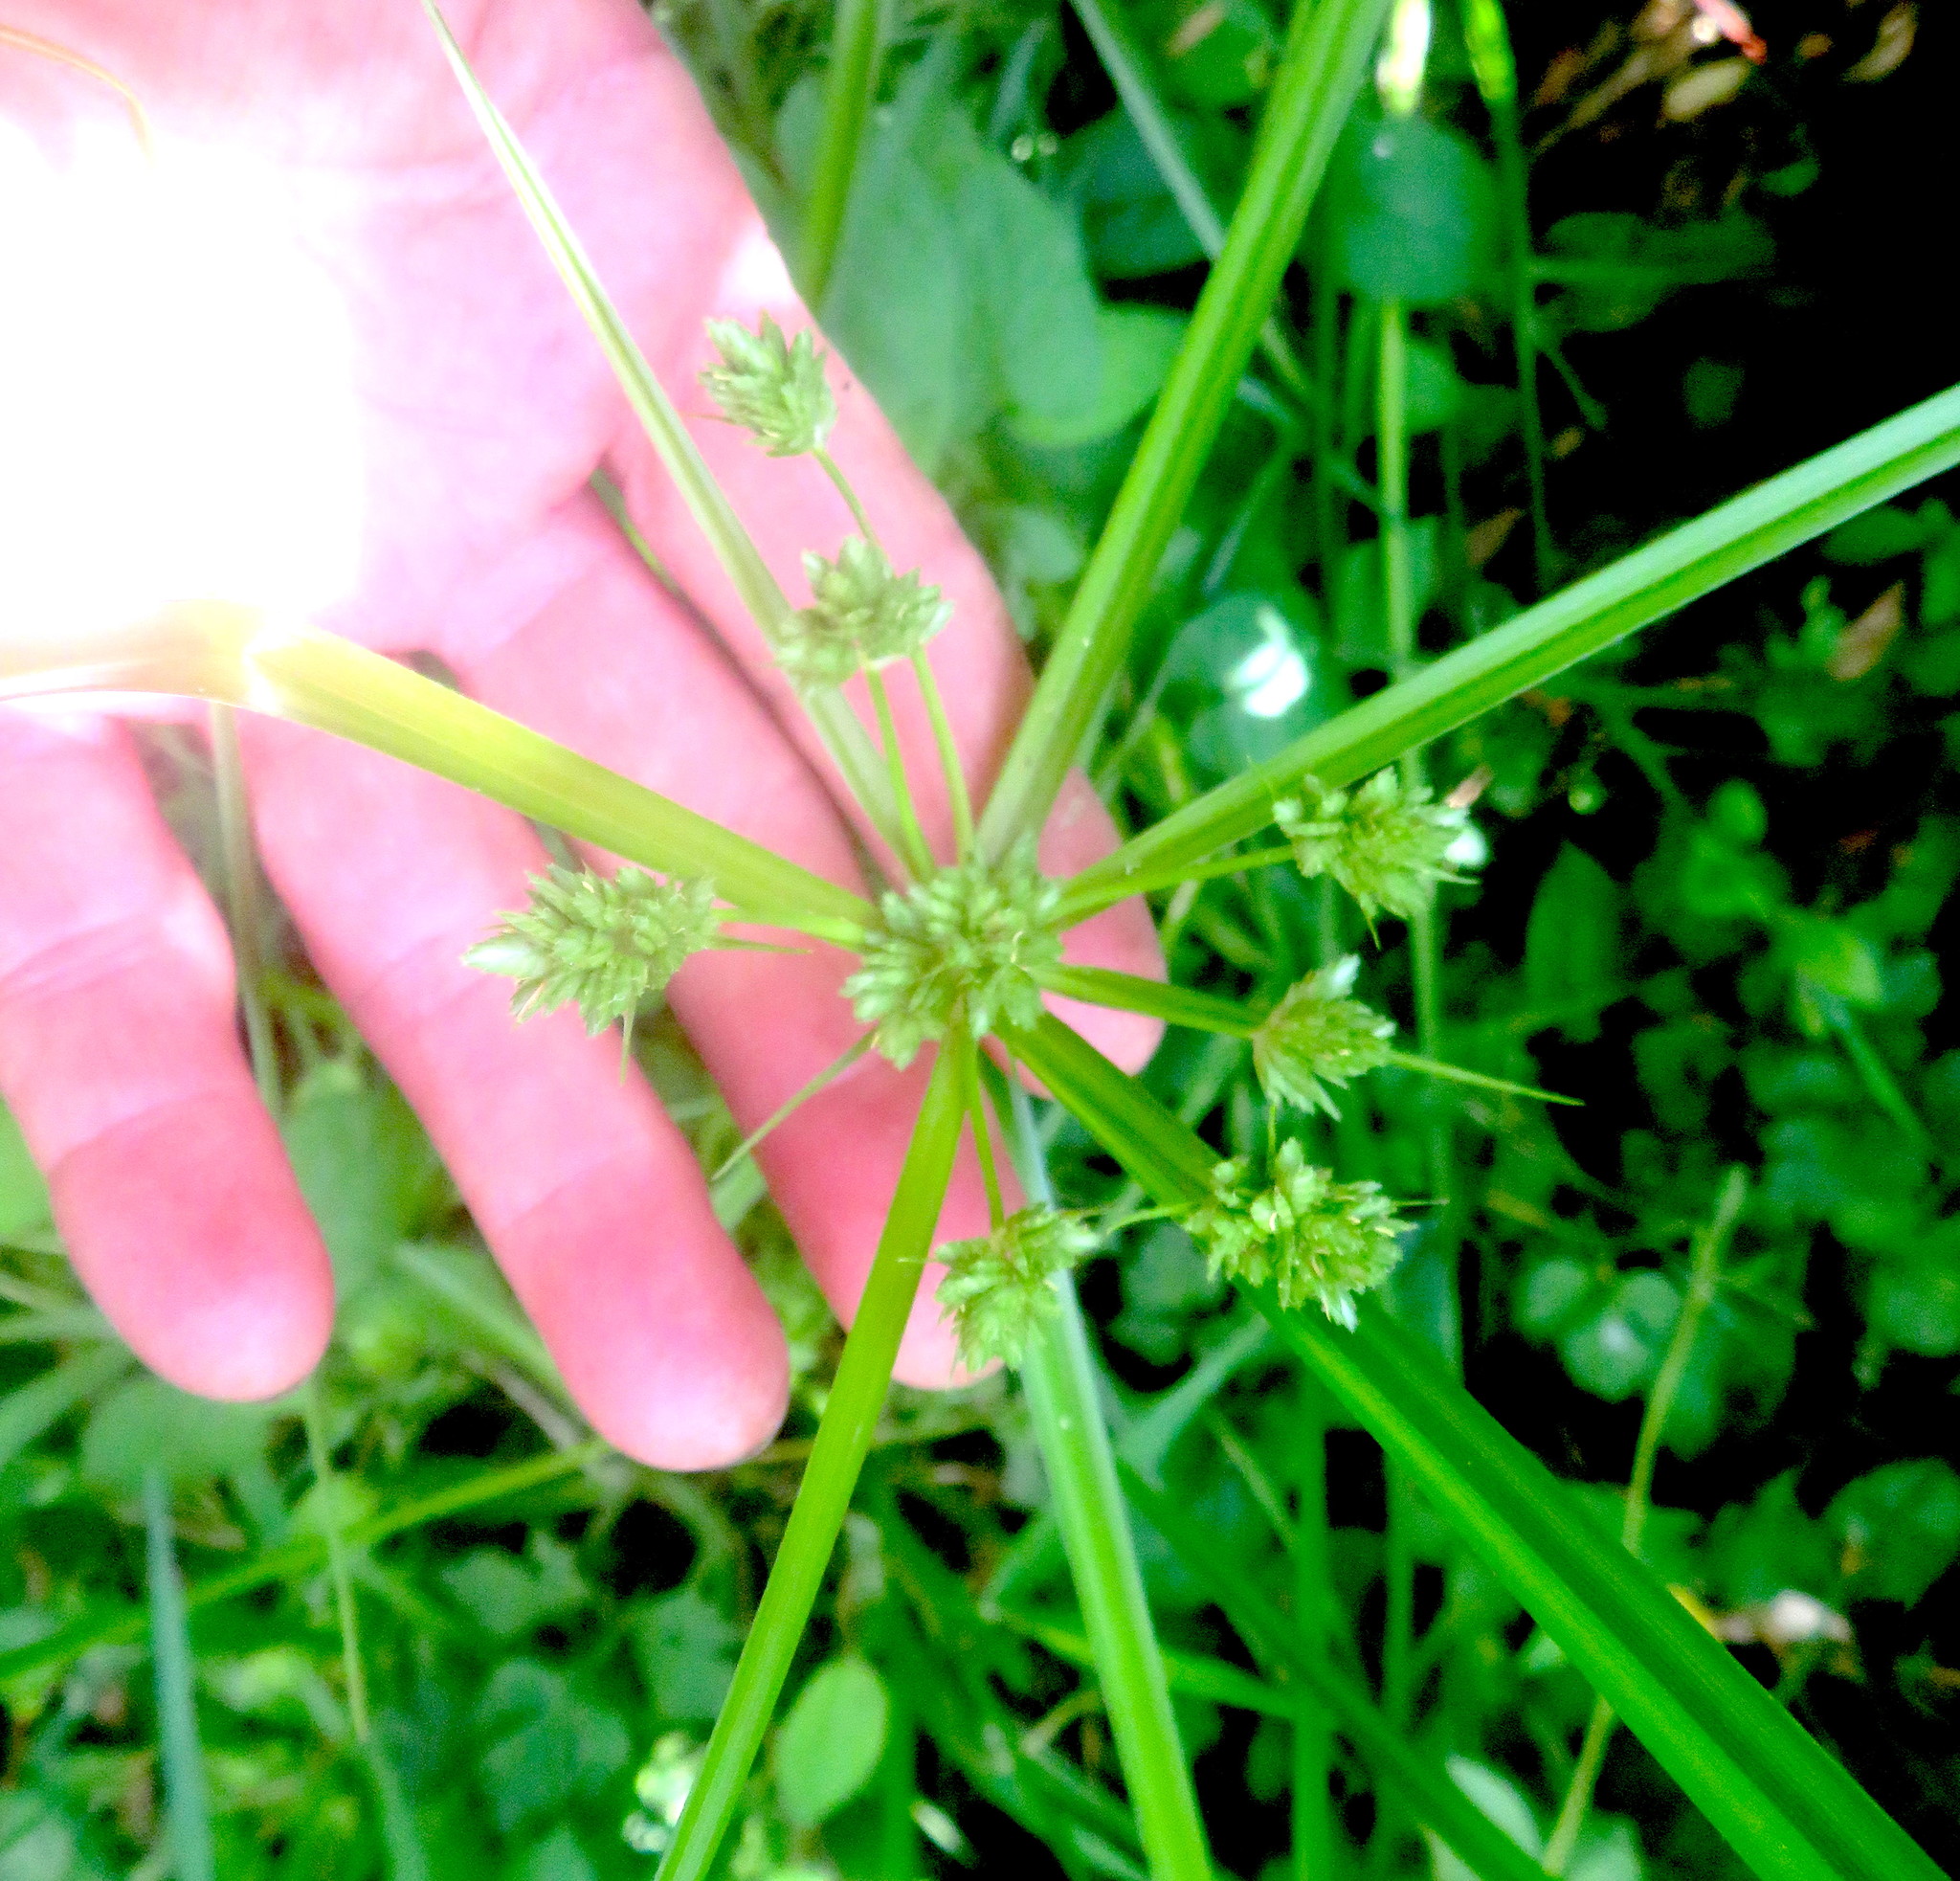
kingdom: Plantae
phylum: Tracheophyta
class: Liliopsida
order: Poales
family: Cyperaceae
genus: Cyperus
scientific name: Cyperus eragrostis
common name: Tall flatsedge
